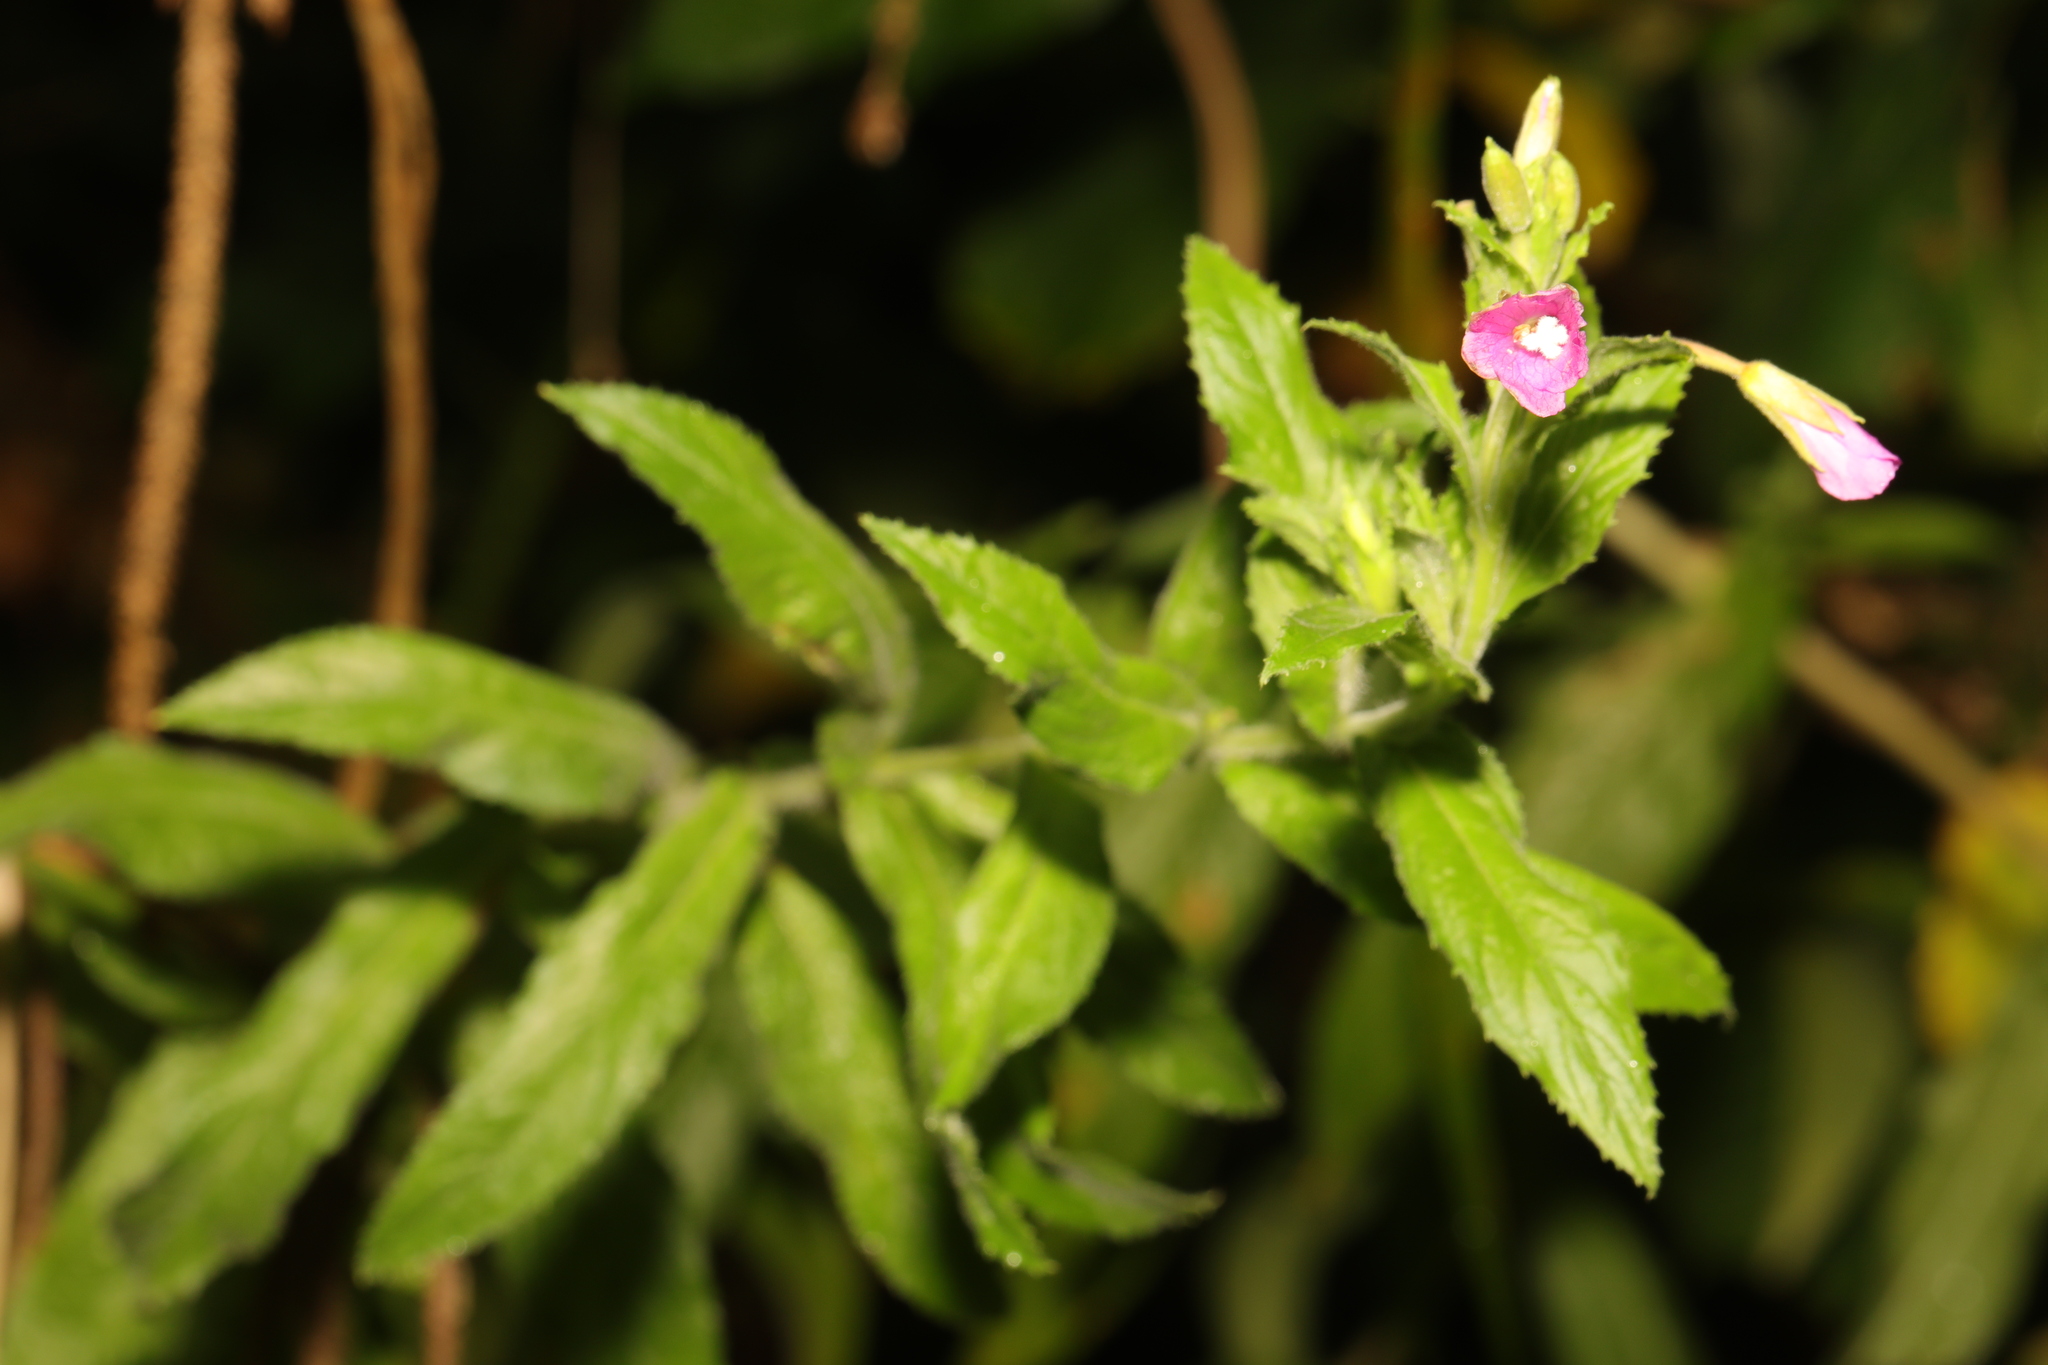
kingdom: Plantae
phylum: Tracheophyta
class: Magnoliopsida
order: Myrtales
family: Onagraceae
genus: Epilobium
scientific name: Epilobium hirsutum
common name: Great willowherb
